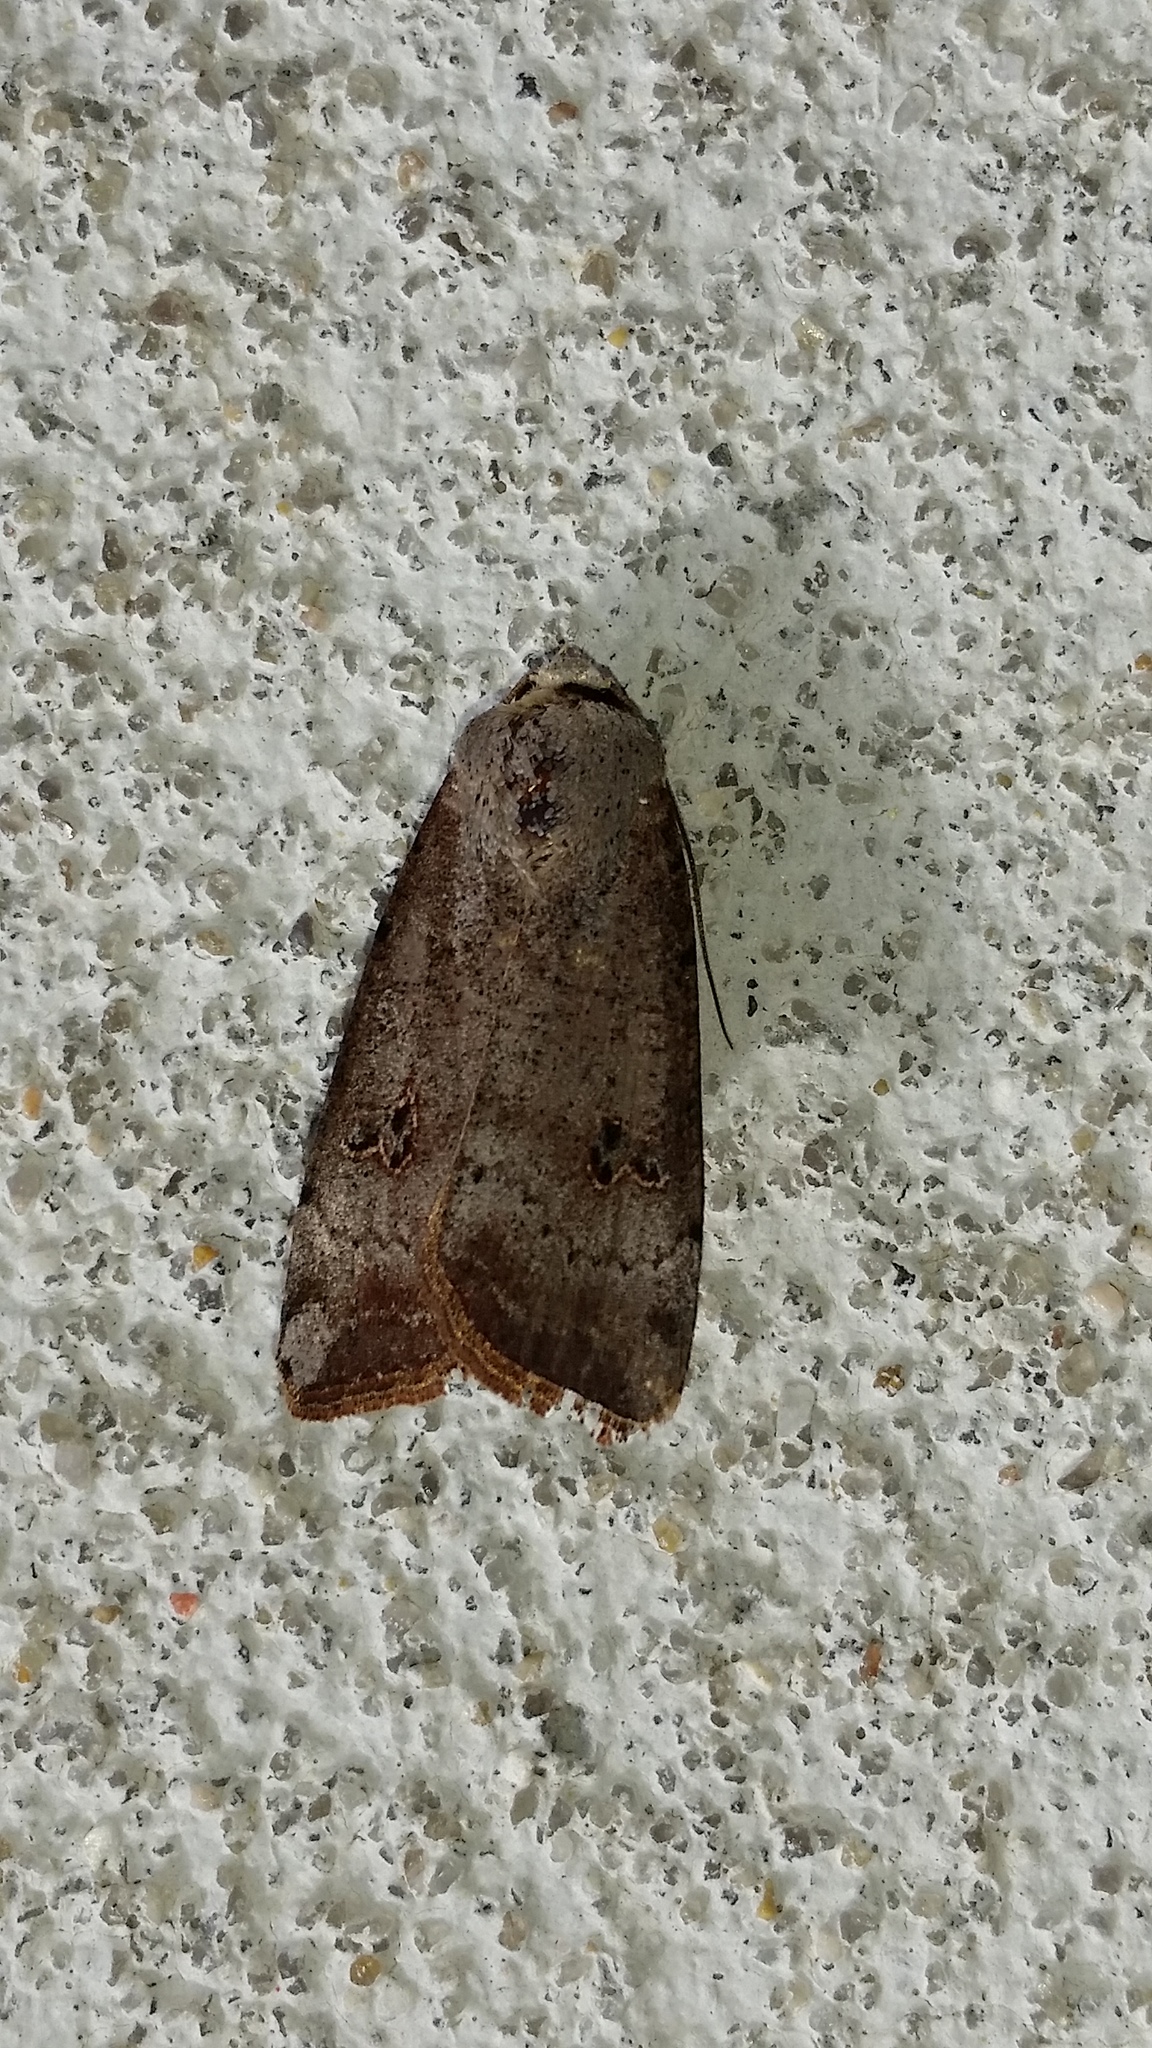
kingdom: Animalia
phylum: Arthropoda
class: Insecta
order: Lepidoptera
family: Noctuidae
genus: Anicla
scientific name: Anicla infecta
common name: Green cutworm
